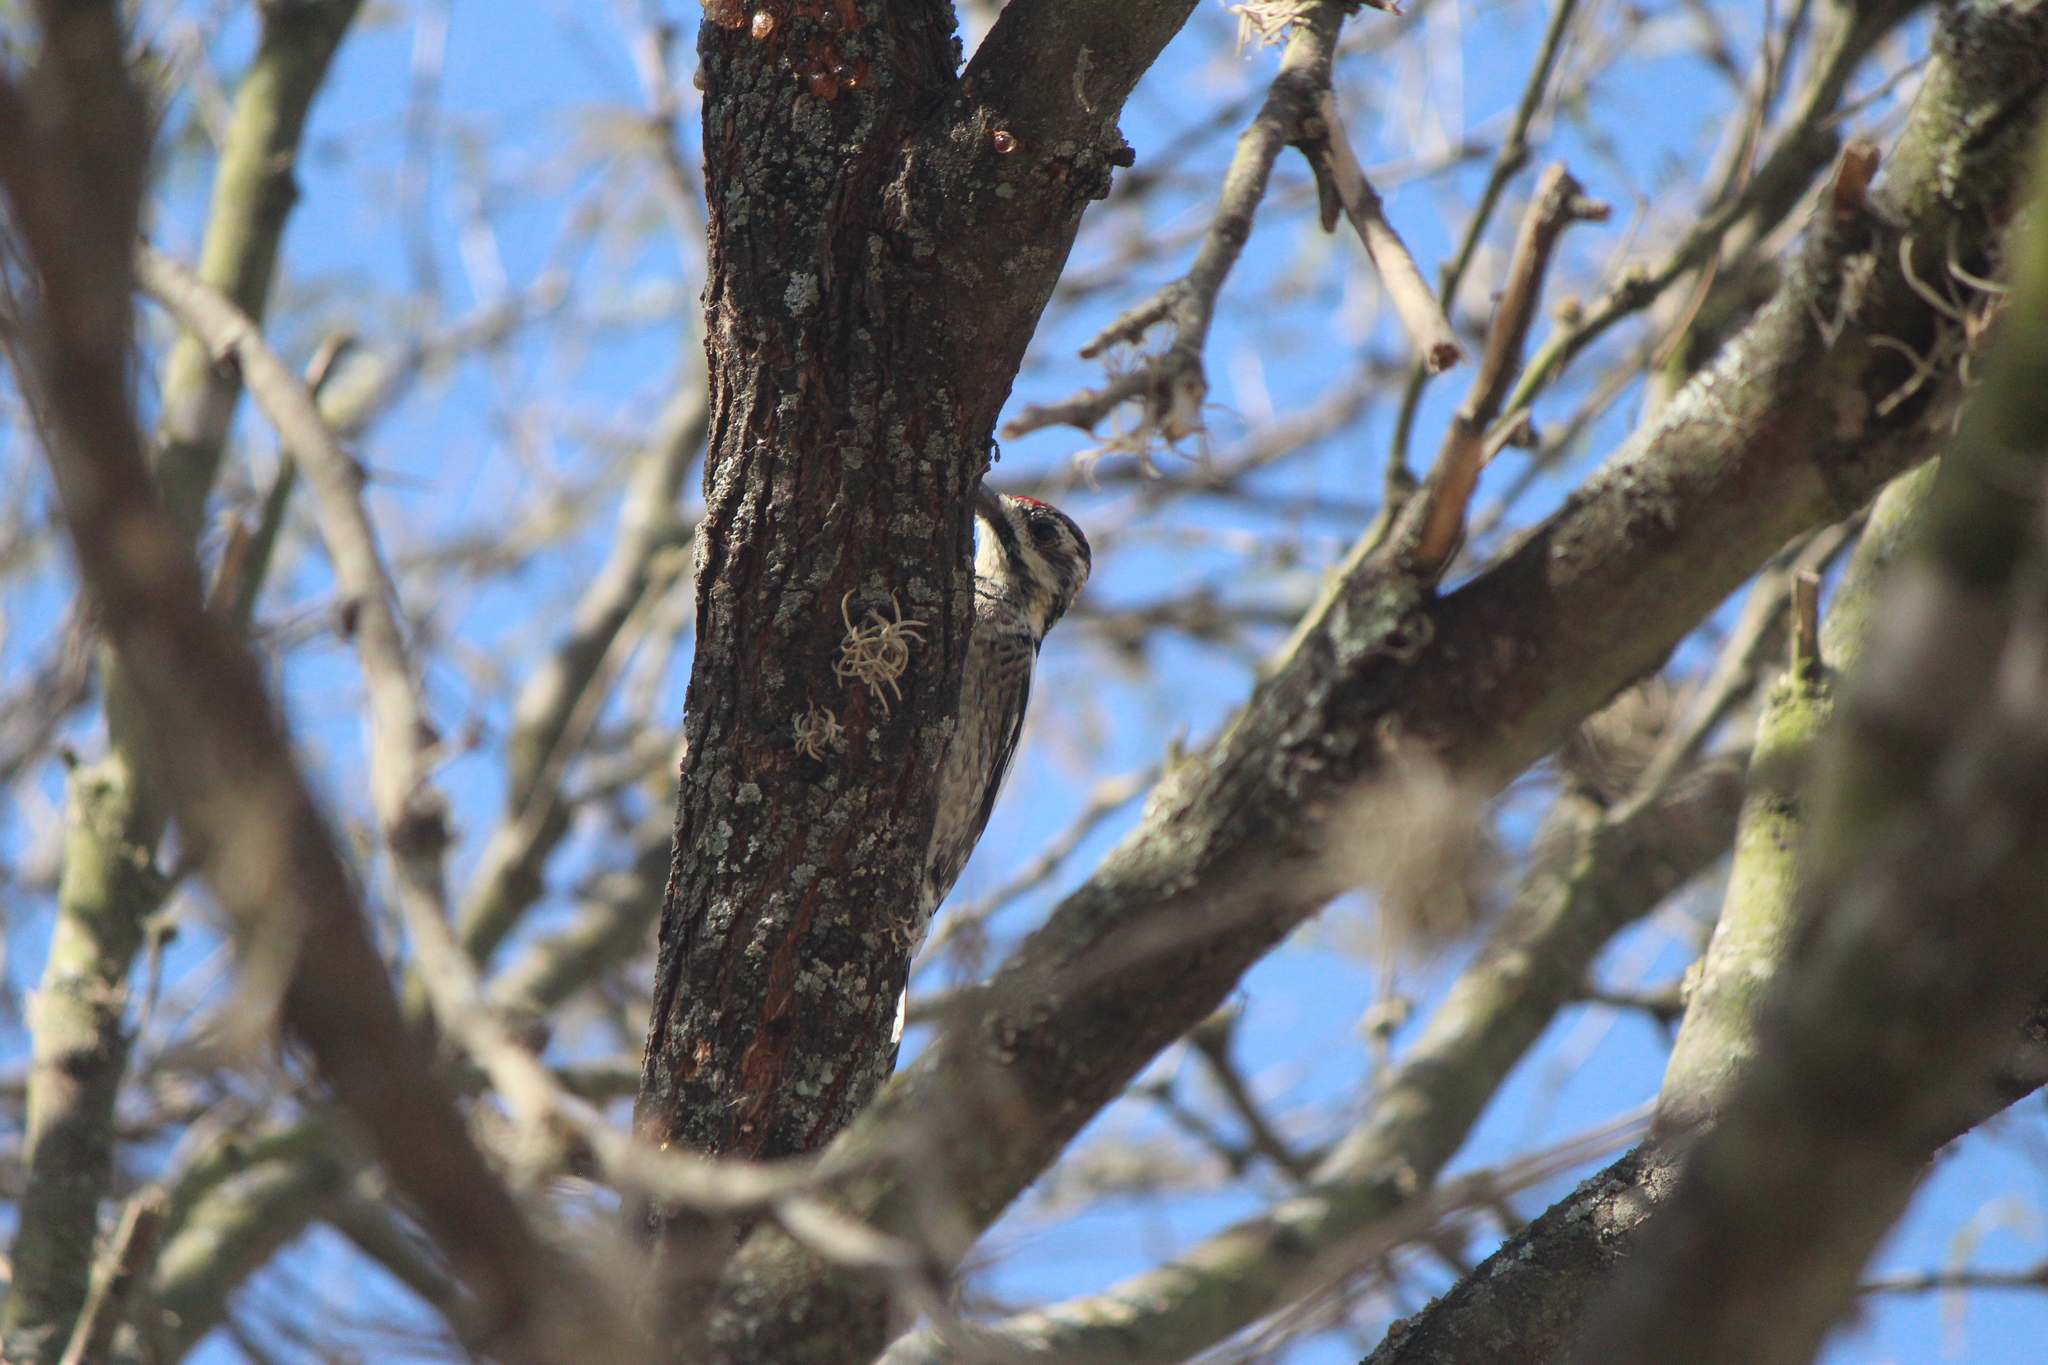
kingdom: Animalia
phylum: Chordata
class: Aves
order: Piciformes
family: Picidae
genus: Sphyrapicus
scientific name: Sphyrapicus varius
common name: Yellow-bellied sapsucker
